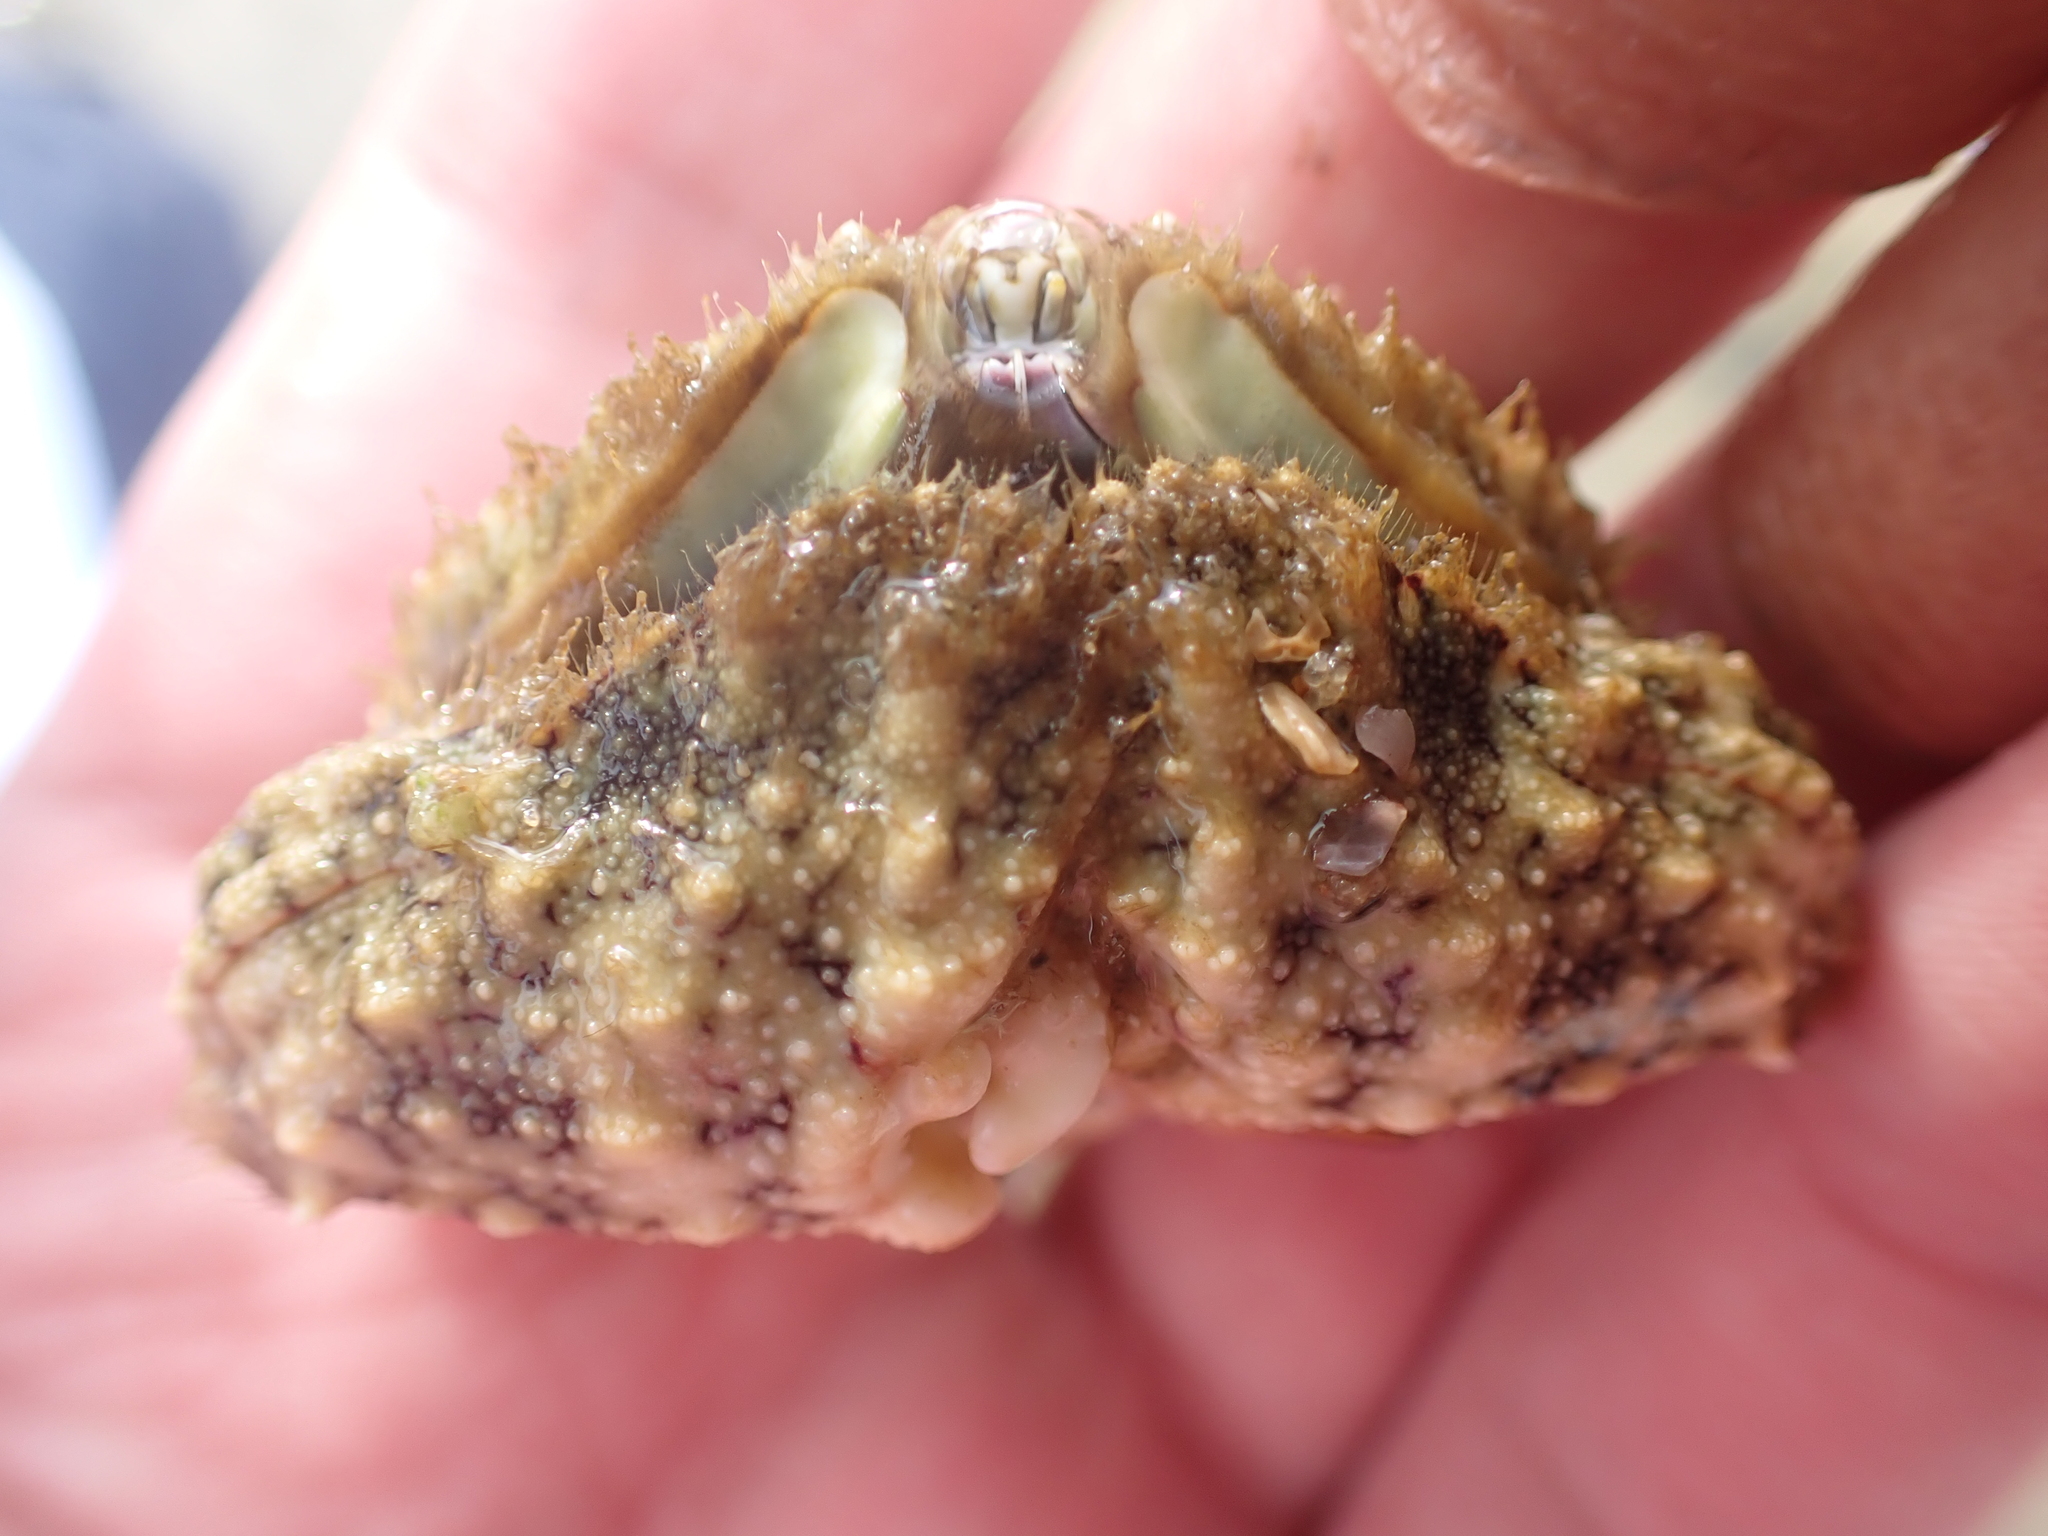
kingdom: Animalia
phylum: Arthropoda
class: Malacostraca
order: Decapoda
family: Calappidae
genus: Calappa
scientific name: Calappa hepatica
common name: Smooth box crab
